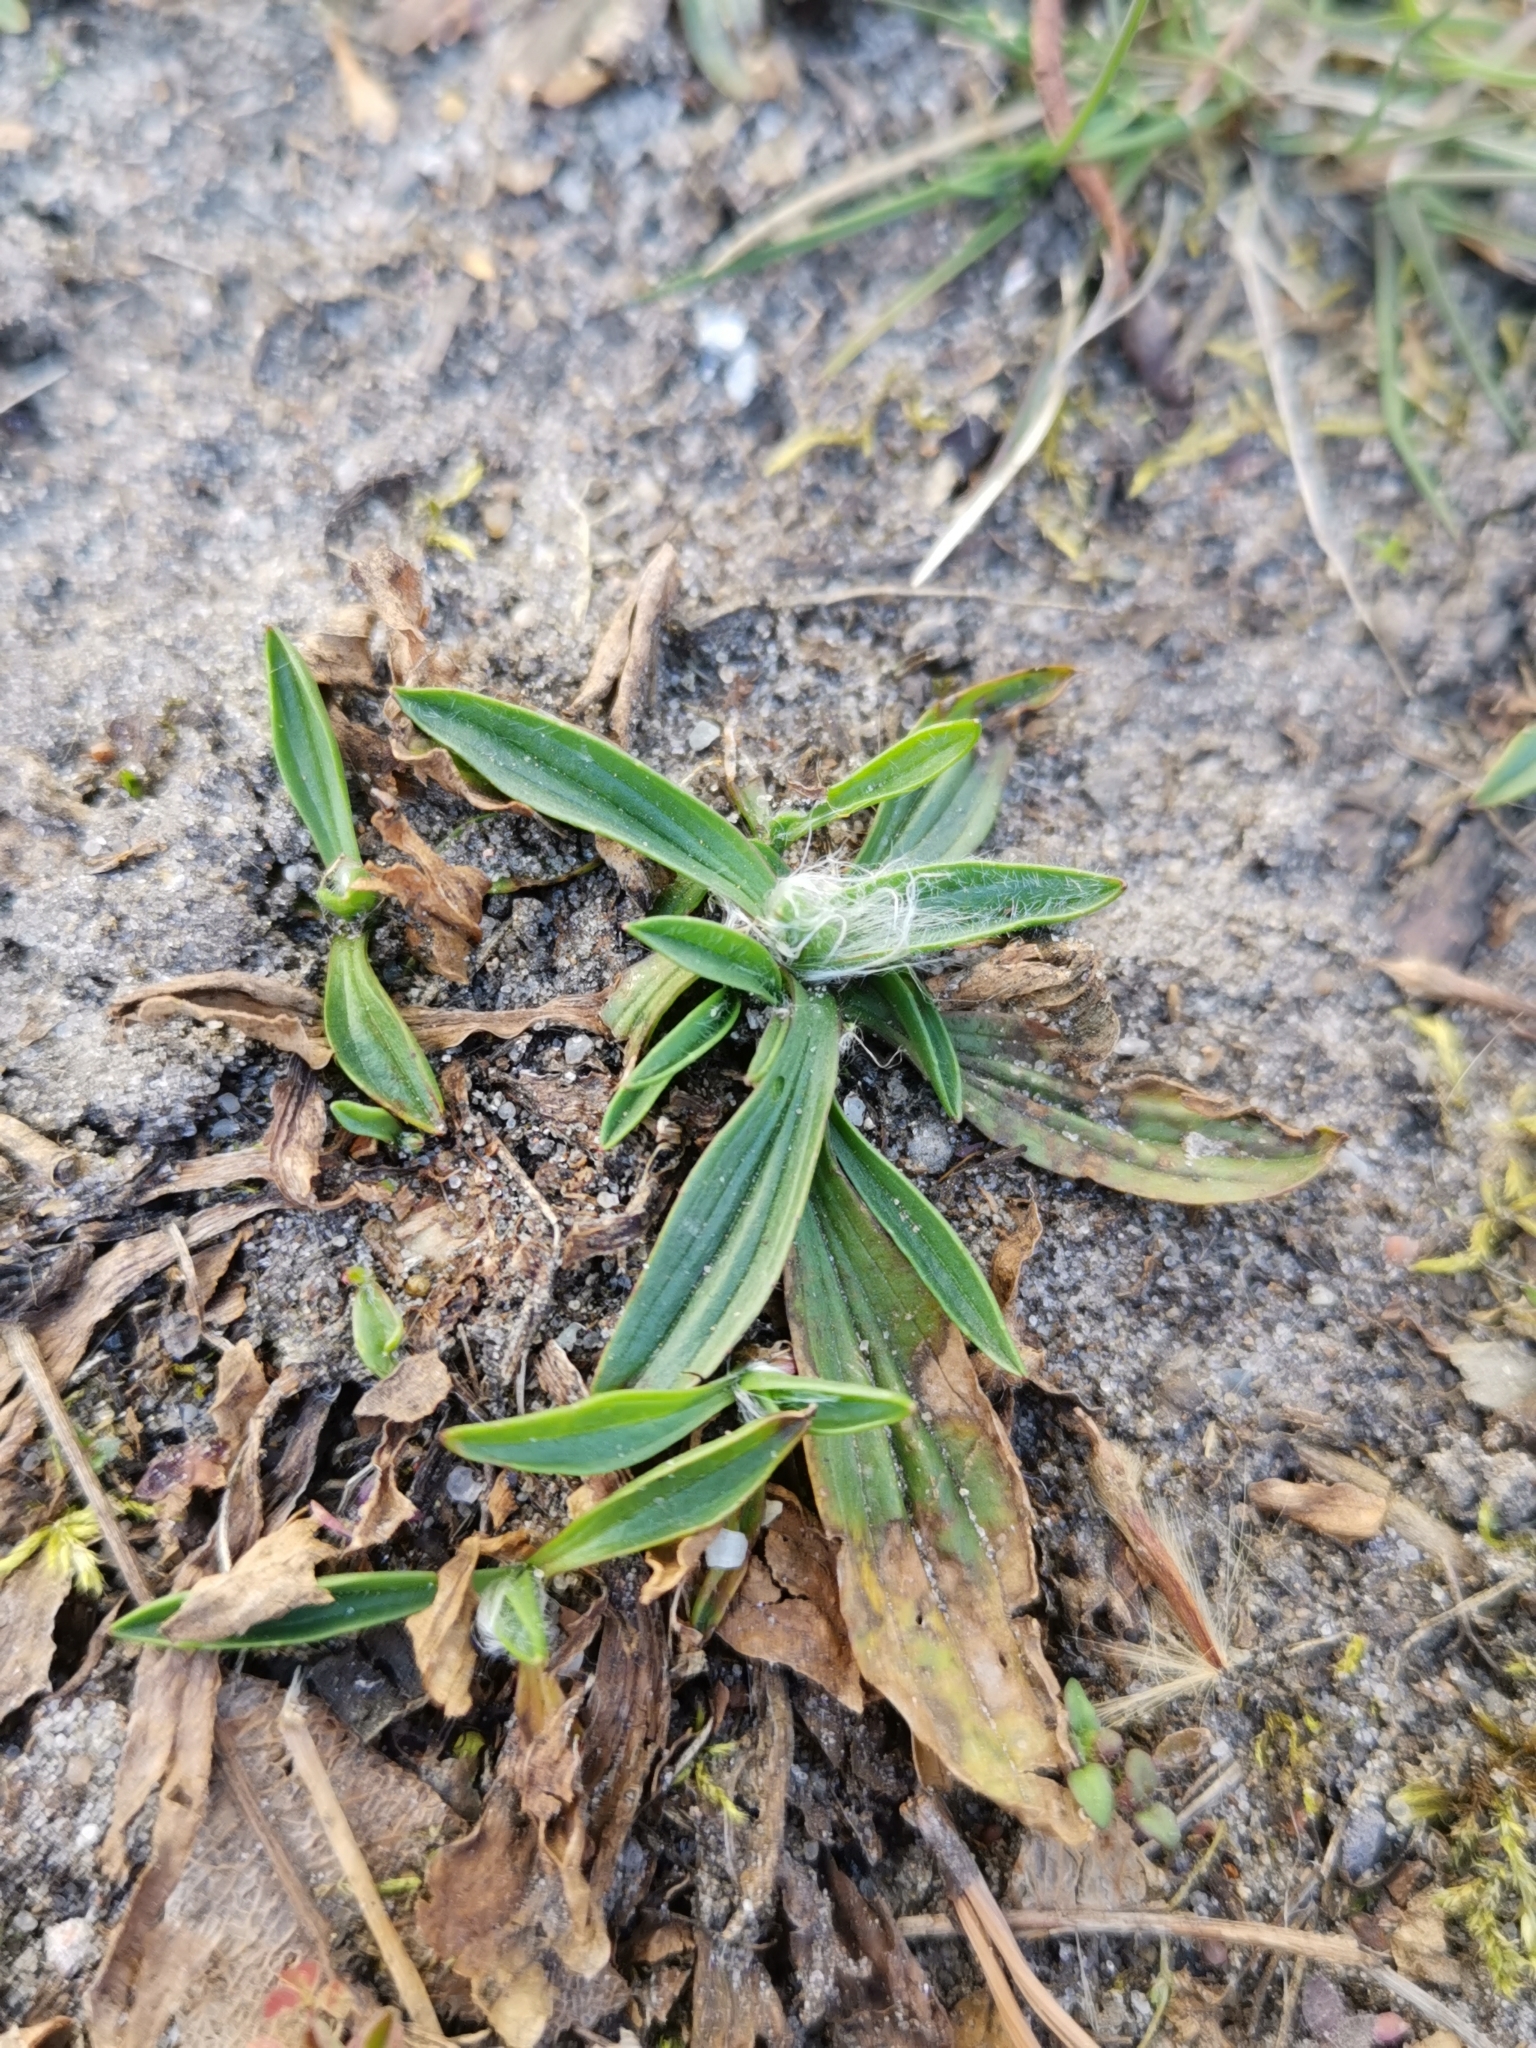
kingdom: Plantae
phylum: Tracheophyta
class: Magnoliopsida
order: Lamiales
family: Plantaginaceae
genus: Plantago
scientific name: Plantago lanceolata
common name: Ribwort plantain
